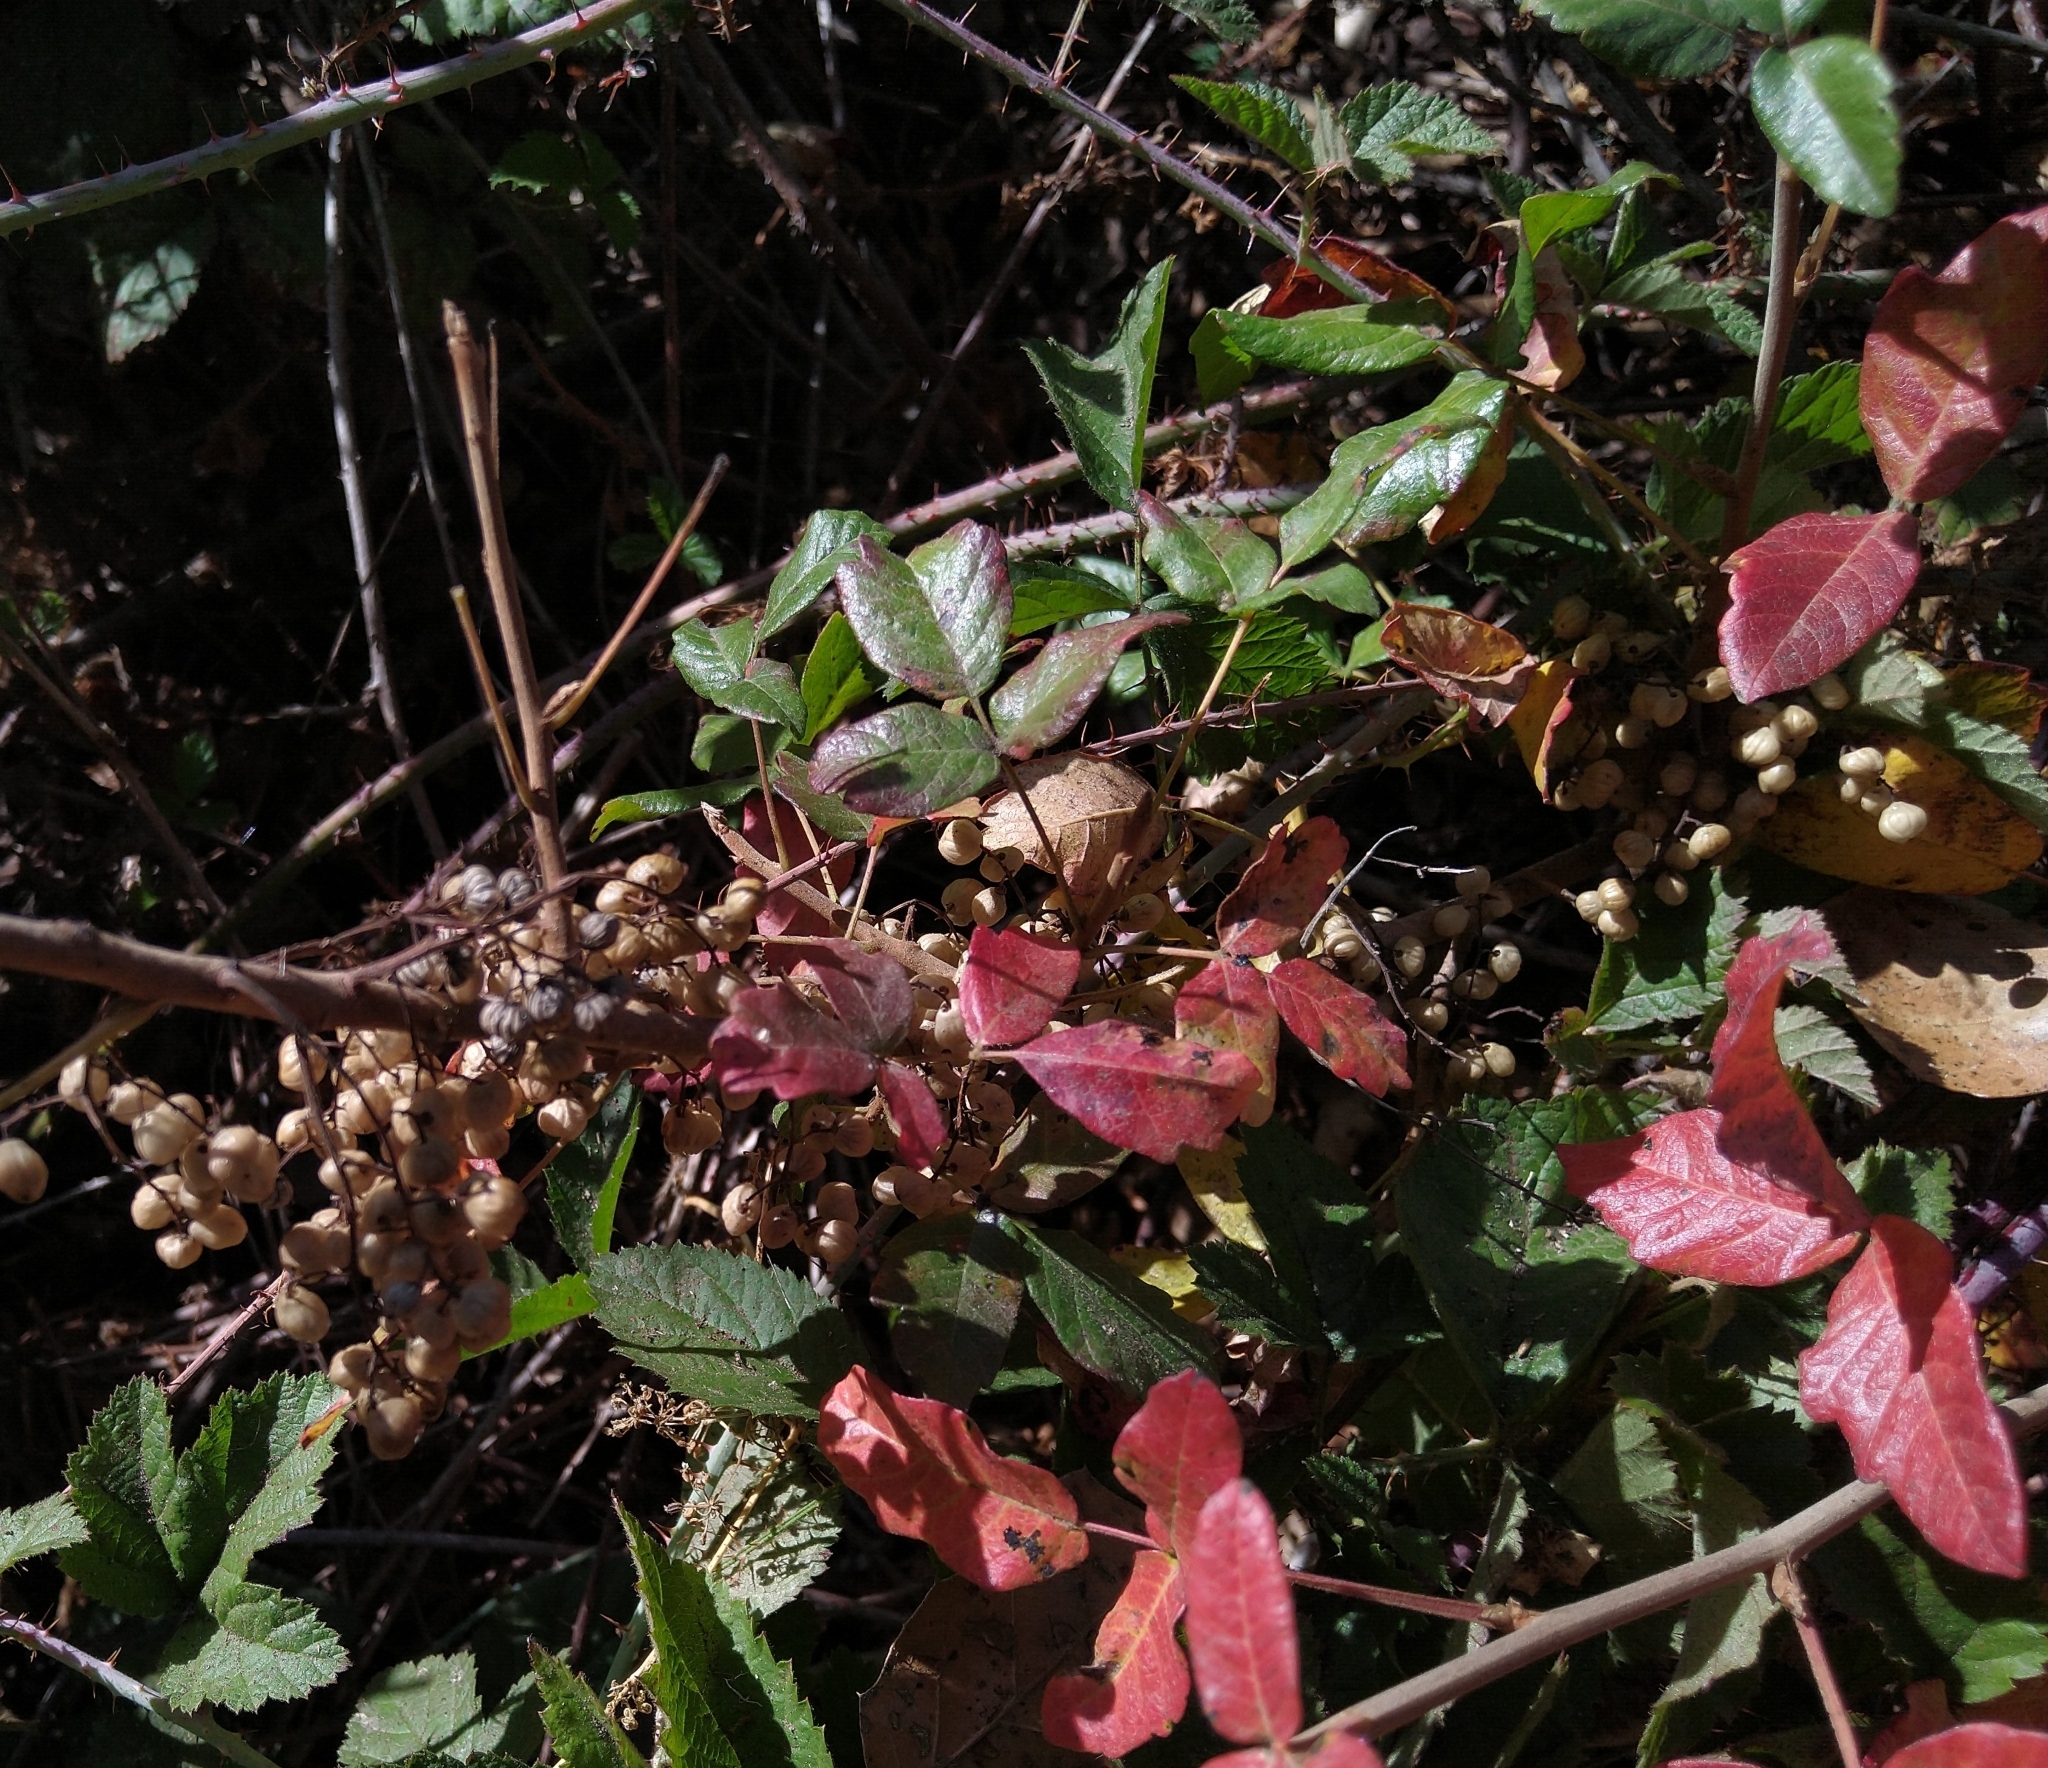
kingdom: Plantae
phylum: Tracheophyta
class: Magnoliopsida
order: Sapindales
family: Anacardiaceae
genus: Toxicodendron
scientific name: Toxicodendron diversilobum
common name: Pacific poison-oak
